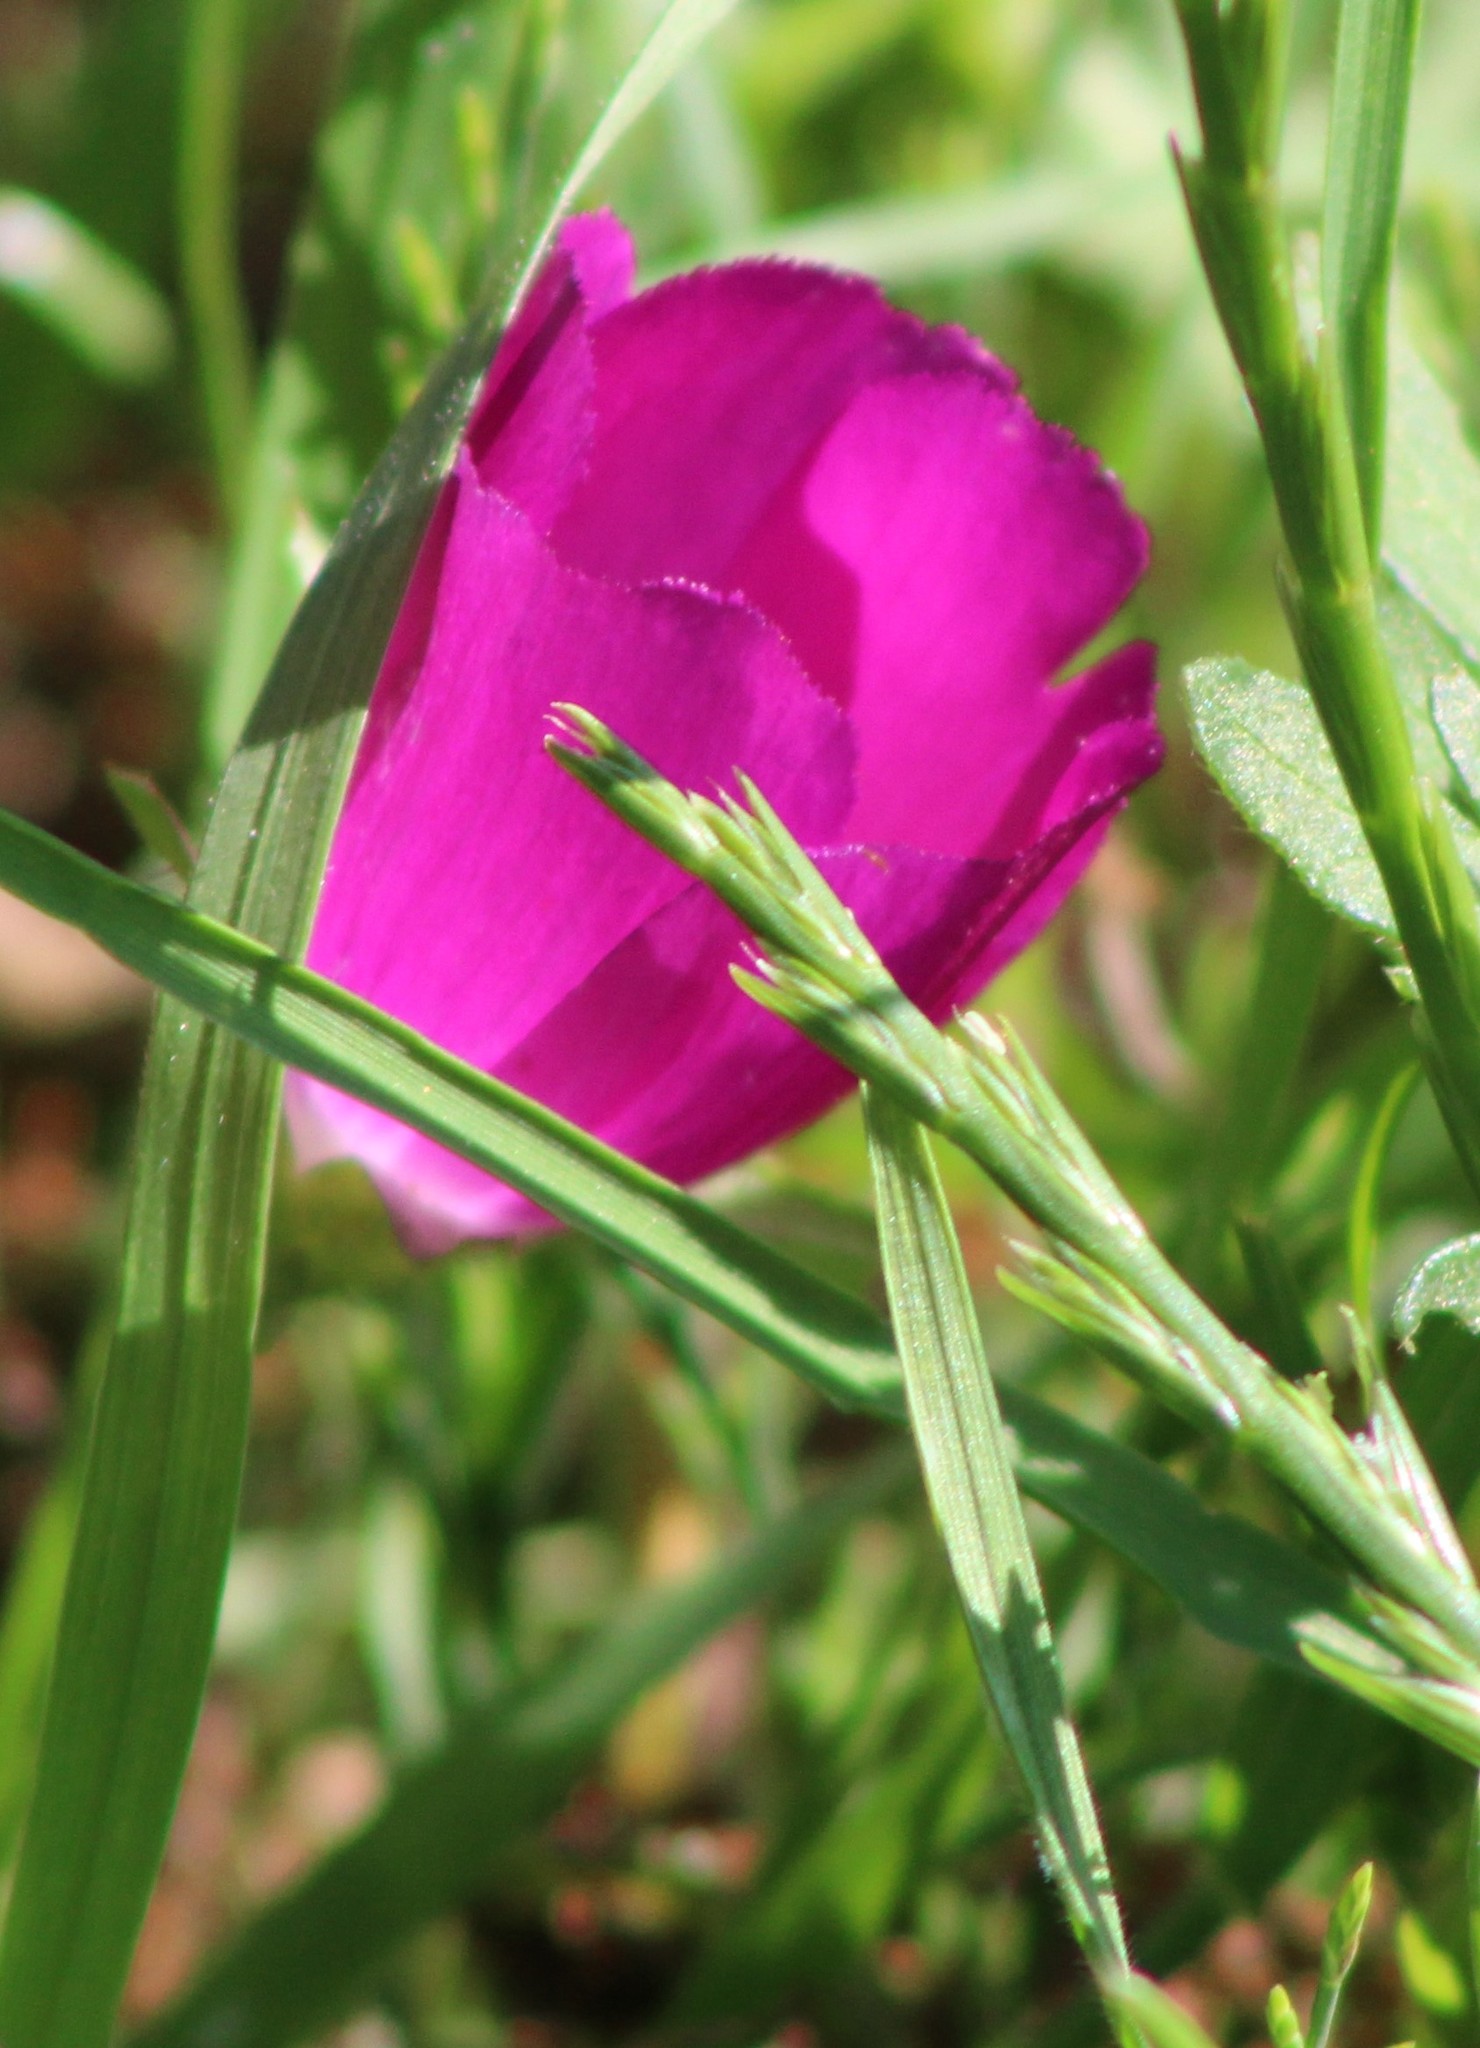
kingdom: Plantae
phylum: Tracheophyta
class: Magnoliopsida
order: Malvales
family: Malvaceae
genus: Callirhoe
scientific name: Callirhoe involucrata
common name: Purple poppy-mallow
